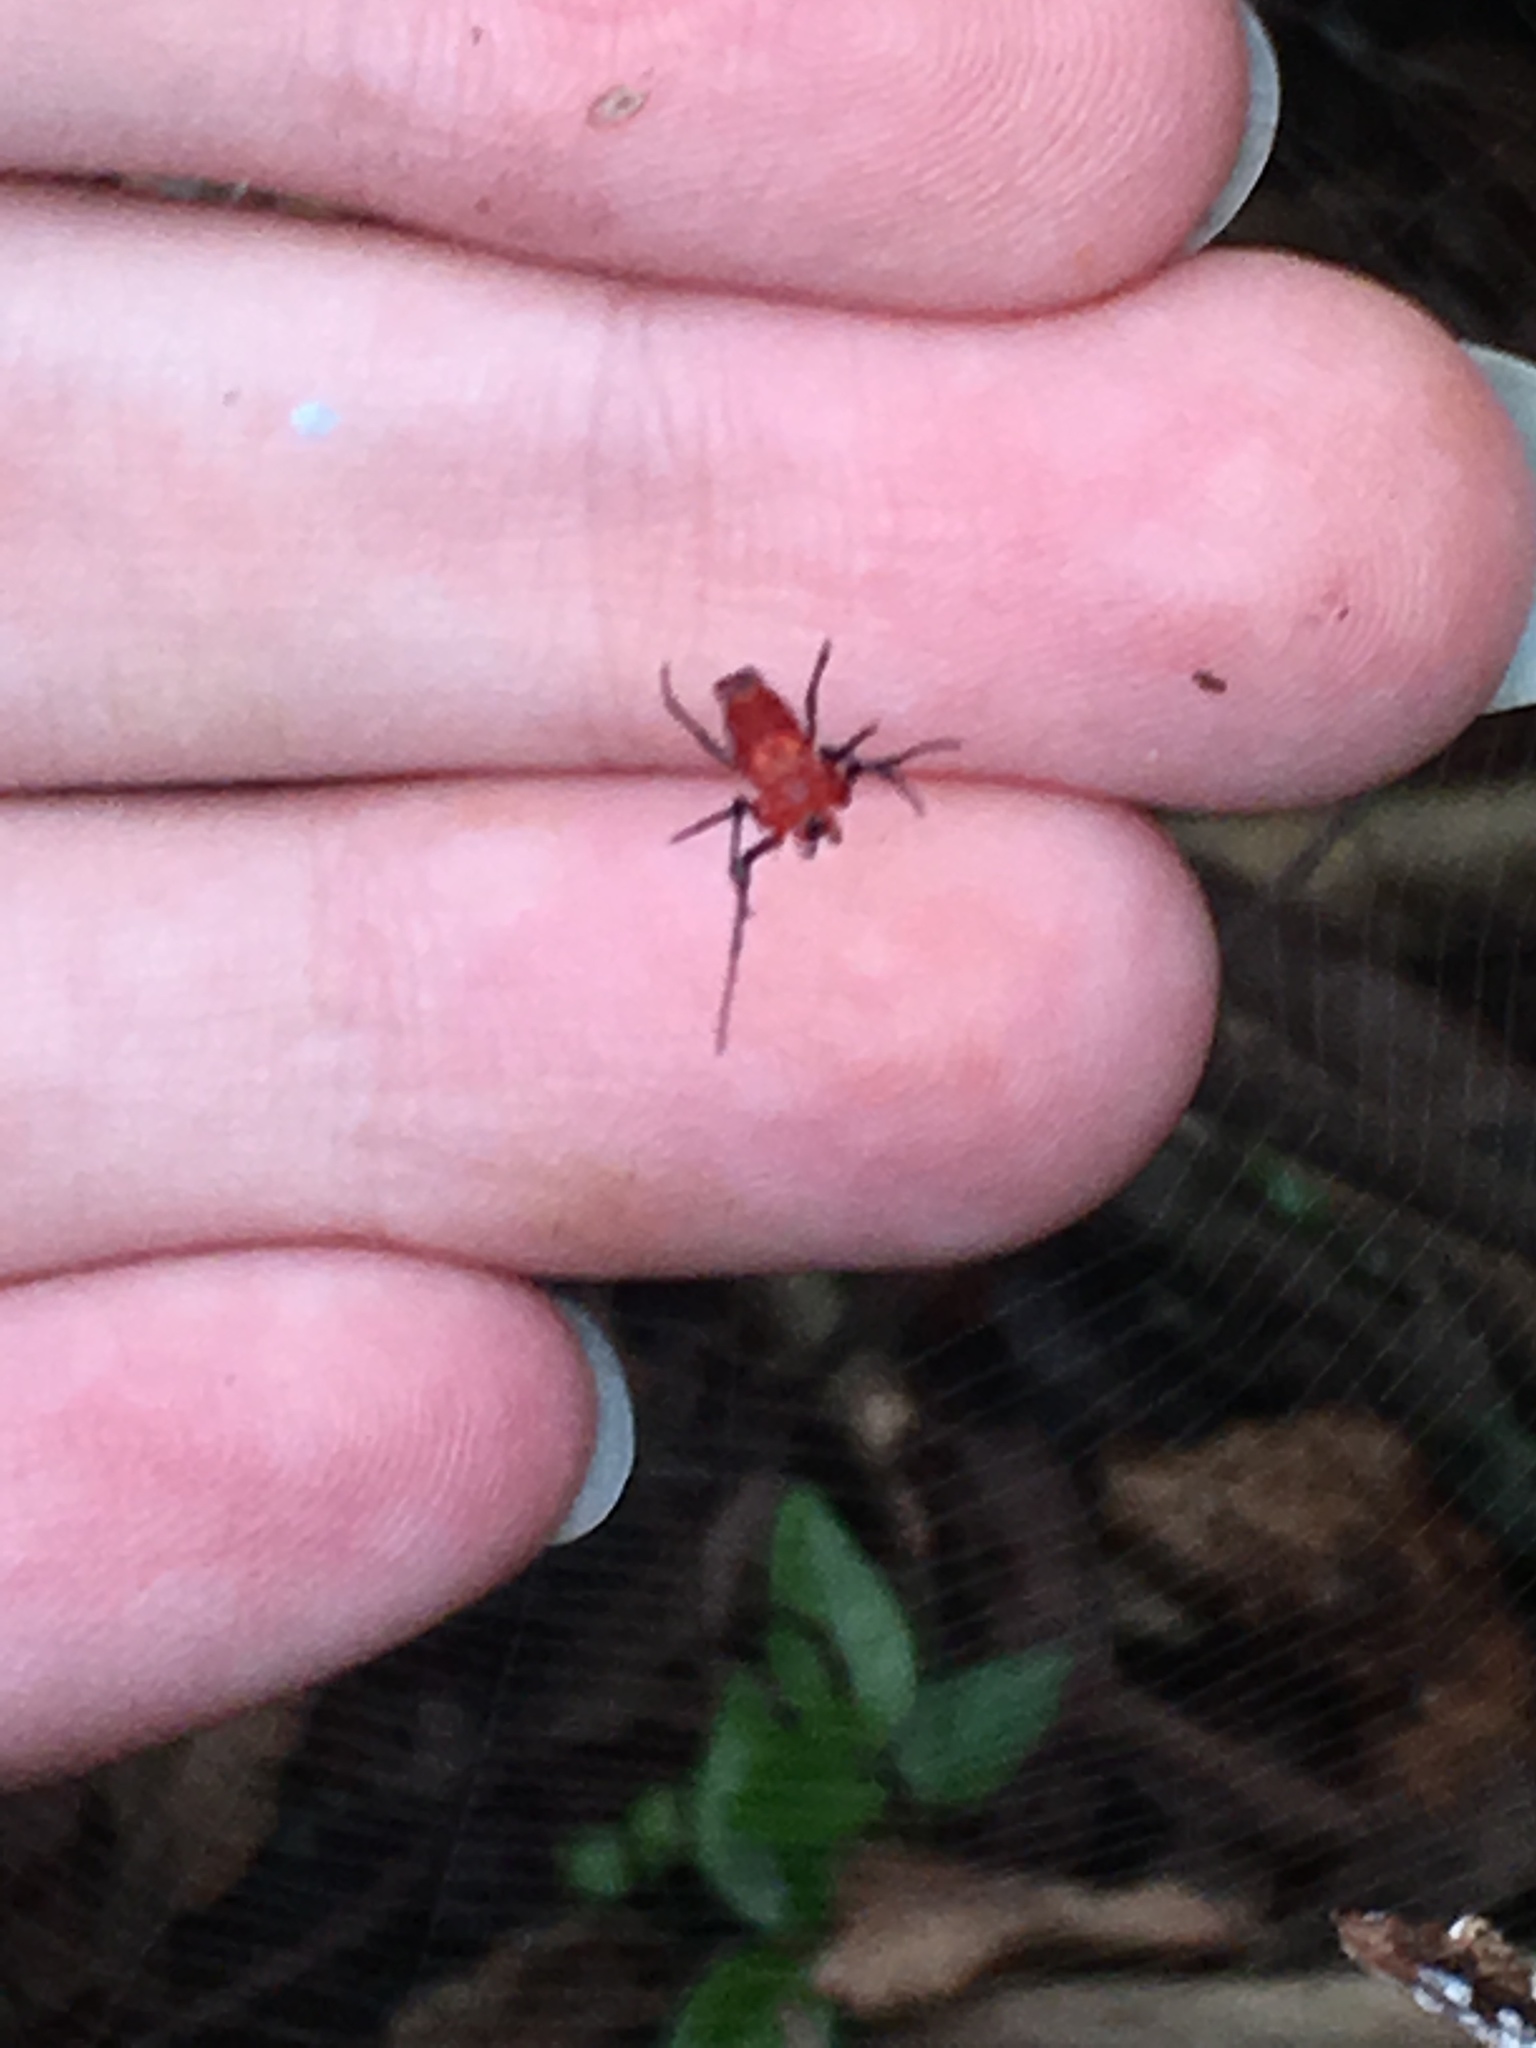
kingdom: Animalia
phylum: Arthropoda
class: Arachnida
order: Araneae
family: Tetragnathidae
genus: Leucauge
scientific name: Leucauge licina
